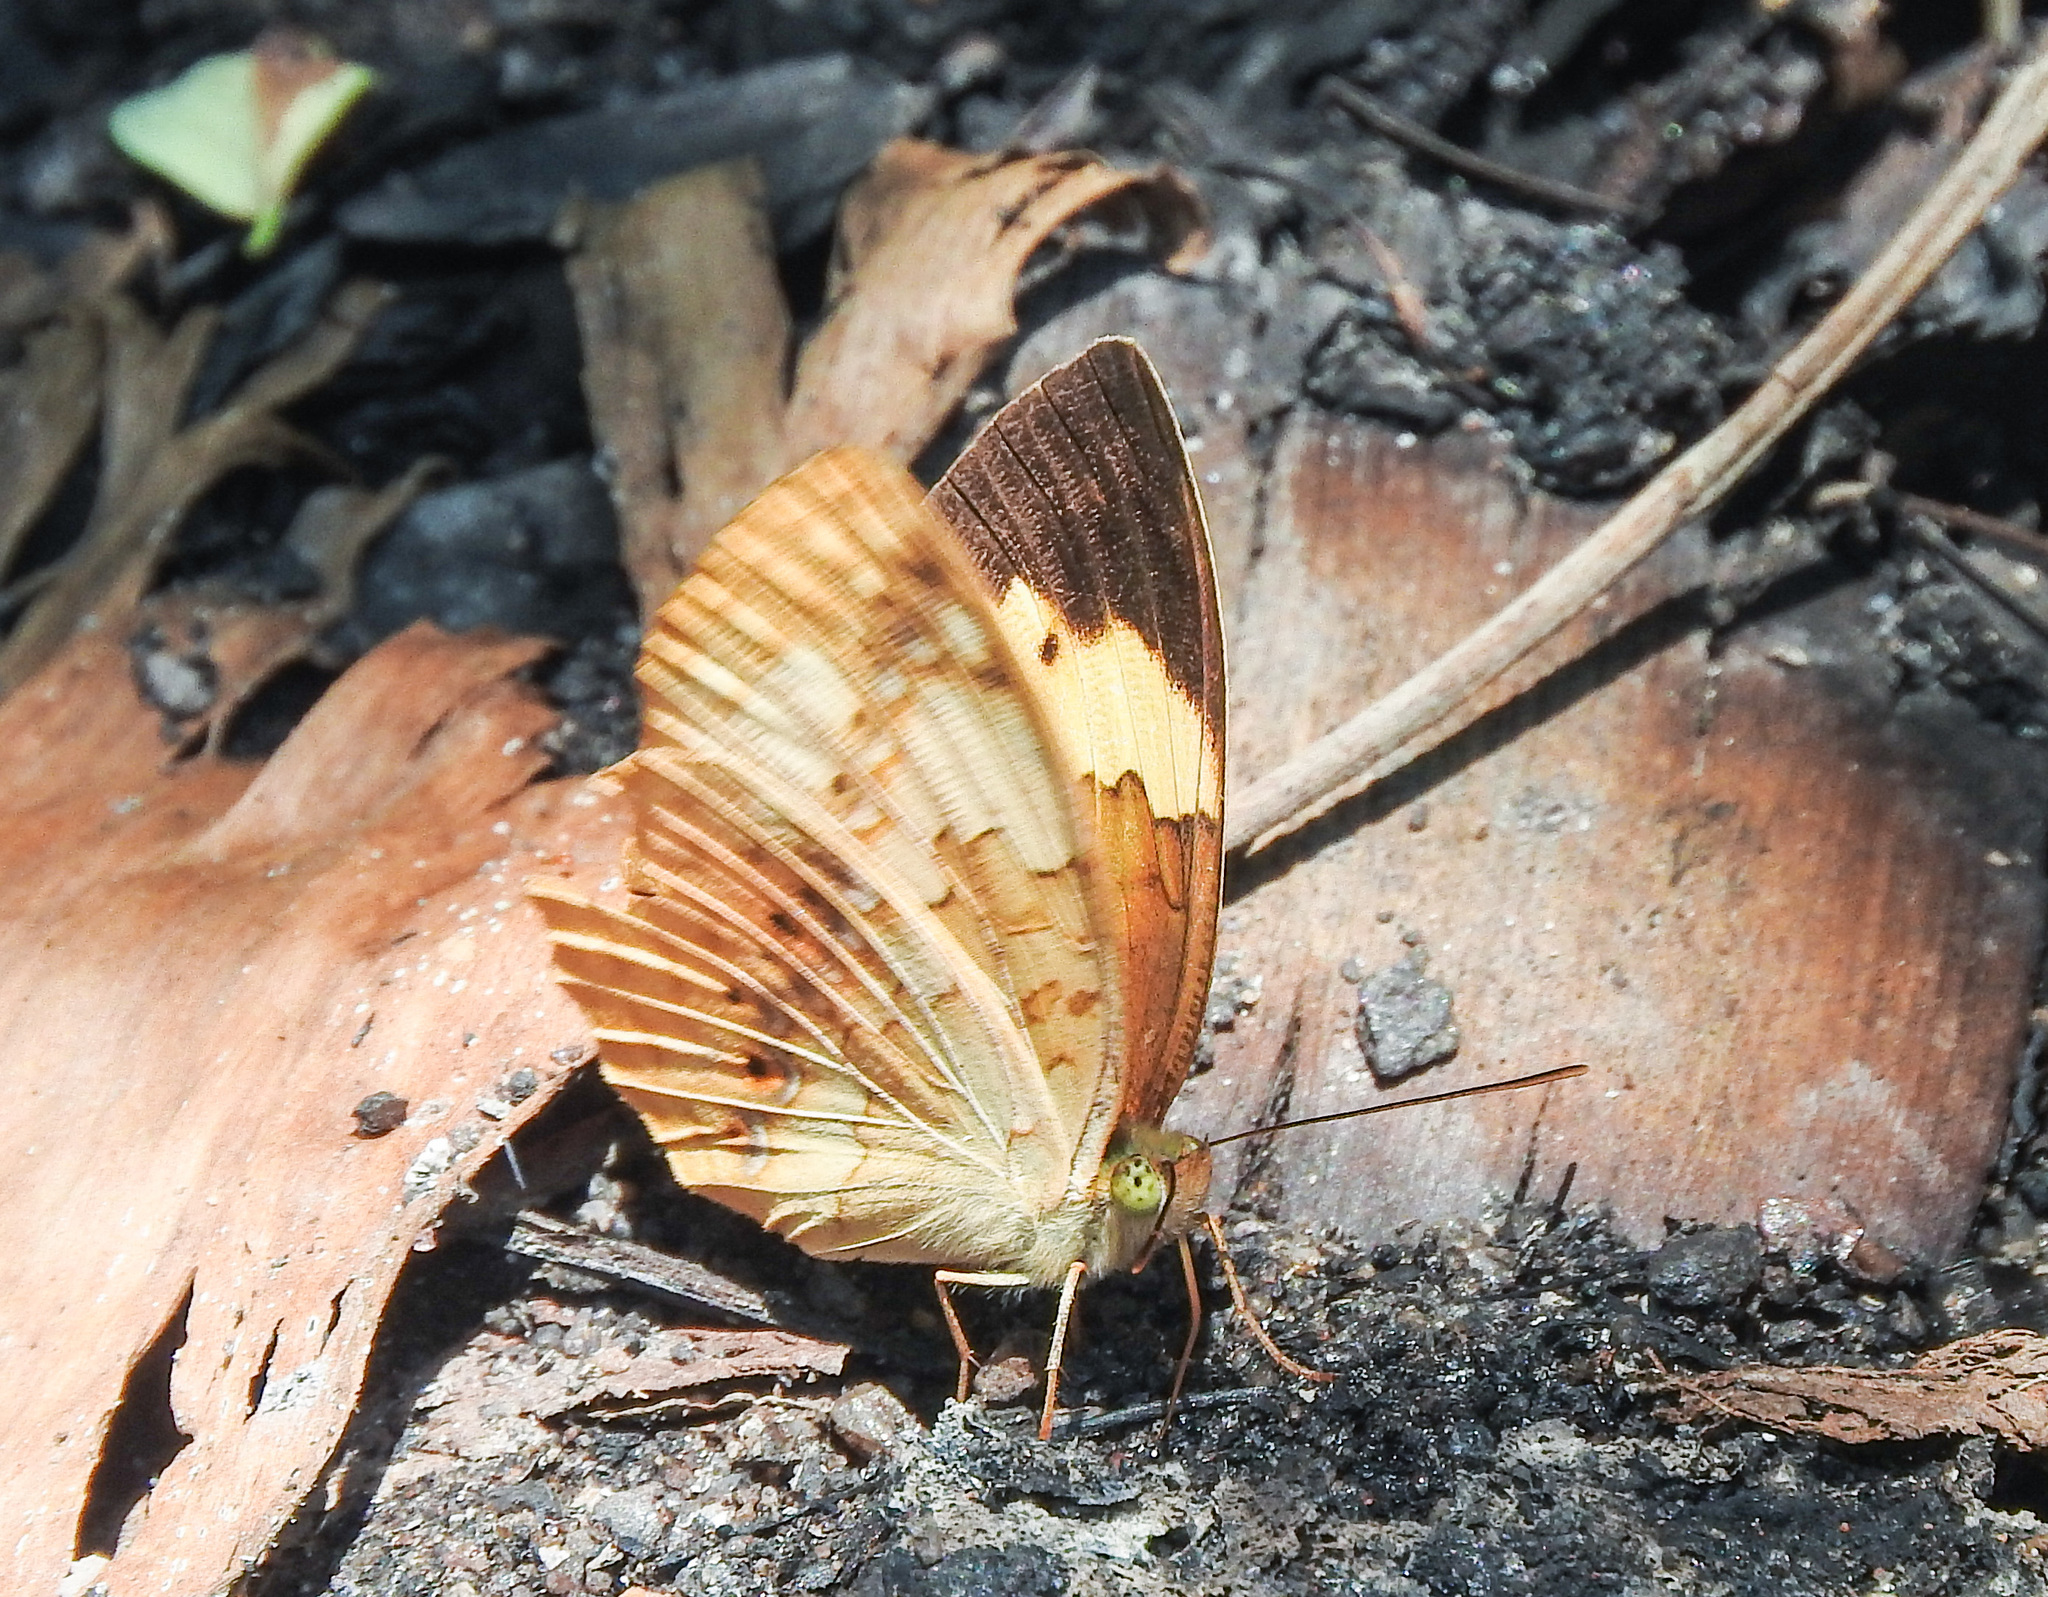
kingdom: Animalia
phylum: Arthropoda
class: Insecta
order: Lepidoptera
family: Nymphalidae
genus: Cupha
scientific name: Cupha erymanthis
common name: Rustic
